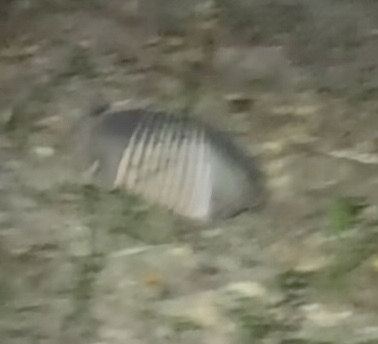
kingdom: Animalia
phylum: Chordata
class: Mammalia
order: Cingulata
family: Dasypodidae
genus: Dasypus
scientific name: Dasypus novemcinctus
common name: Nine-banded armadillo
